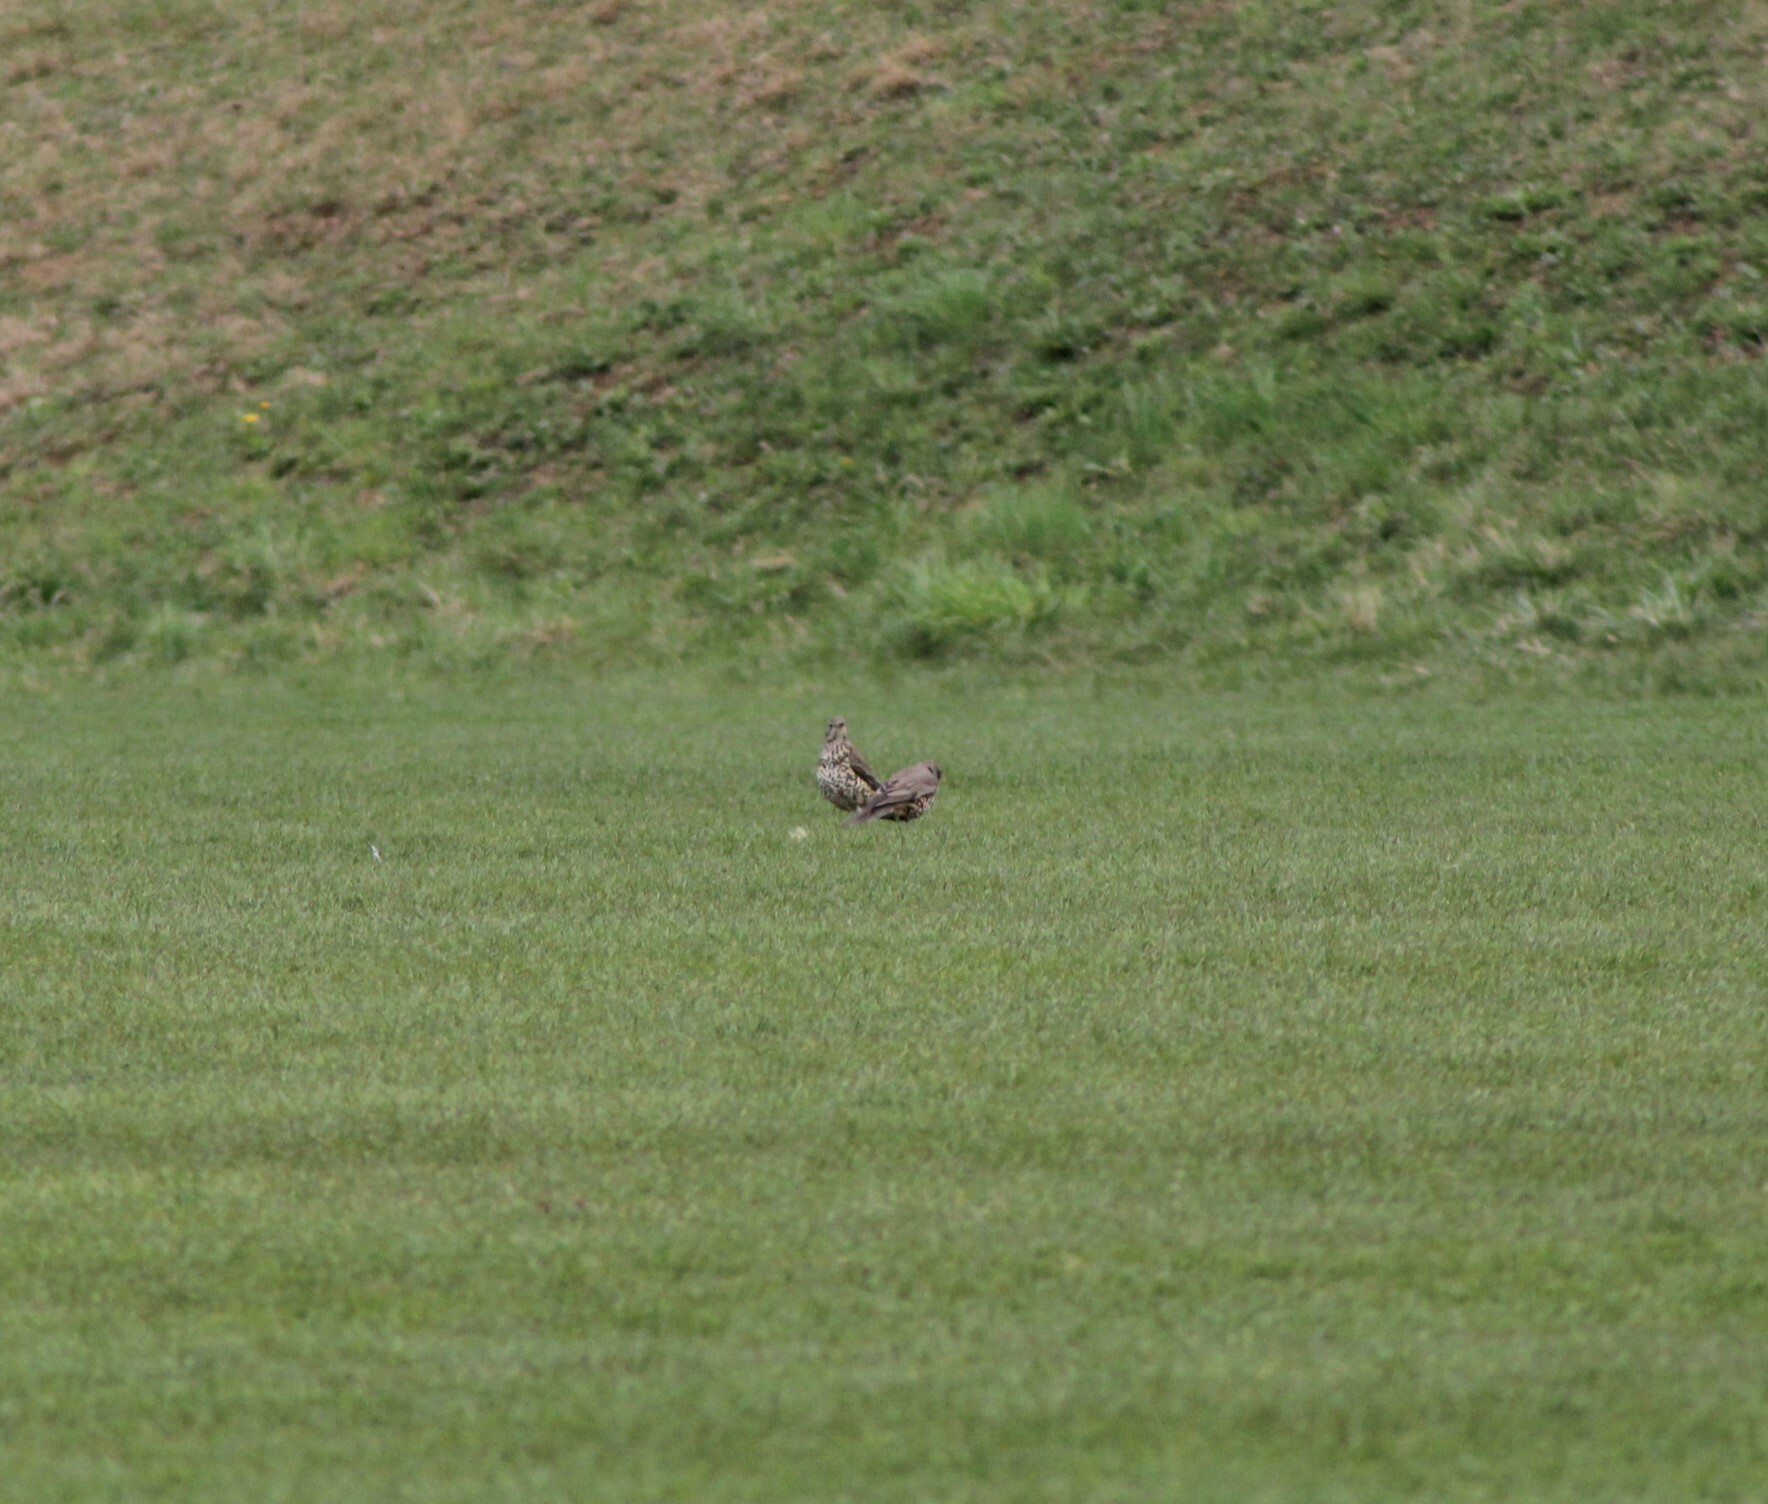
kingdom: Animalia
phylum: Chordata
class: Aves
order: Passeriformes
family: Turdidae
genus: Turdus
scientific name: Turdus viscivorus
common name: Mistle thrush
